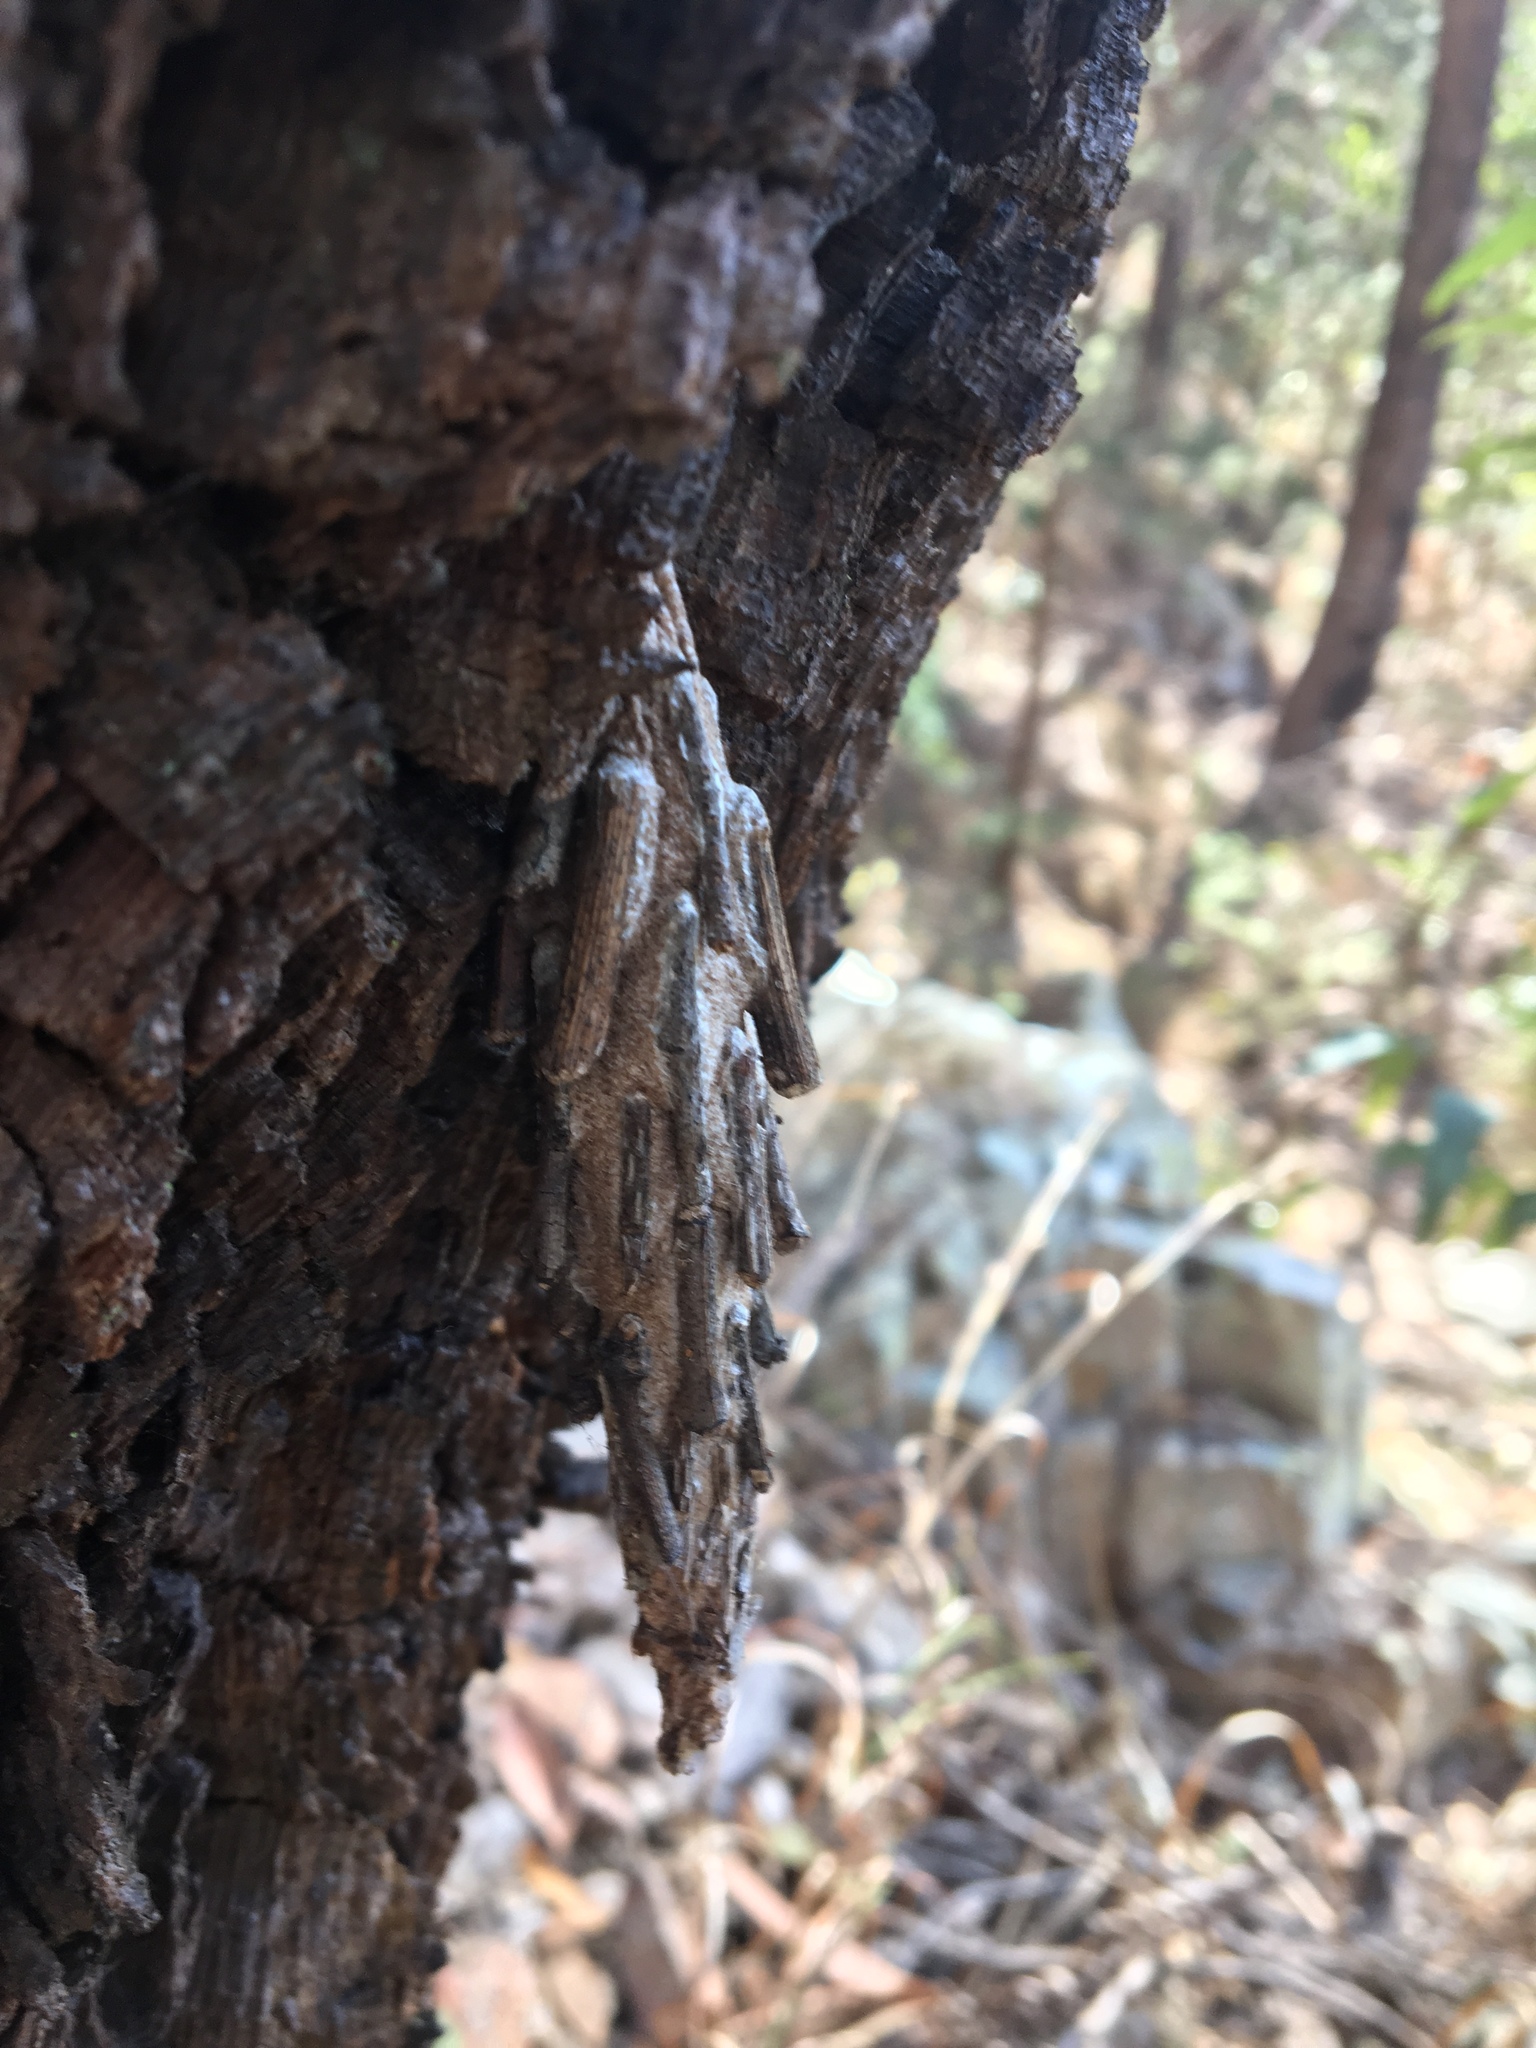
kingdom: Animalia
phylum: Arthropoda
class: Insecta
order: Lepidoptera
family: Psychidae
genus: Metura
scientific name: Metura elongatus
